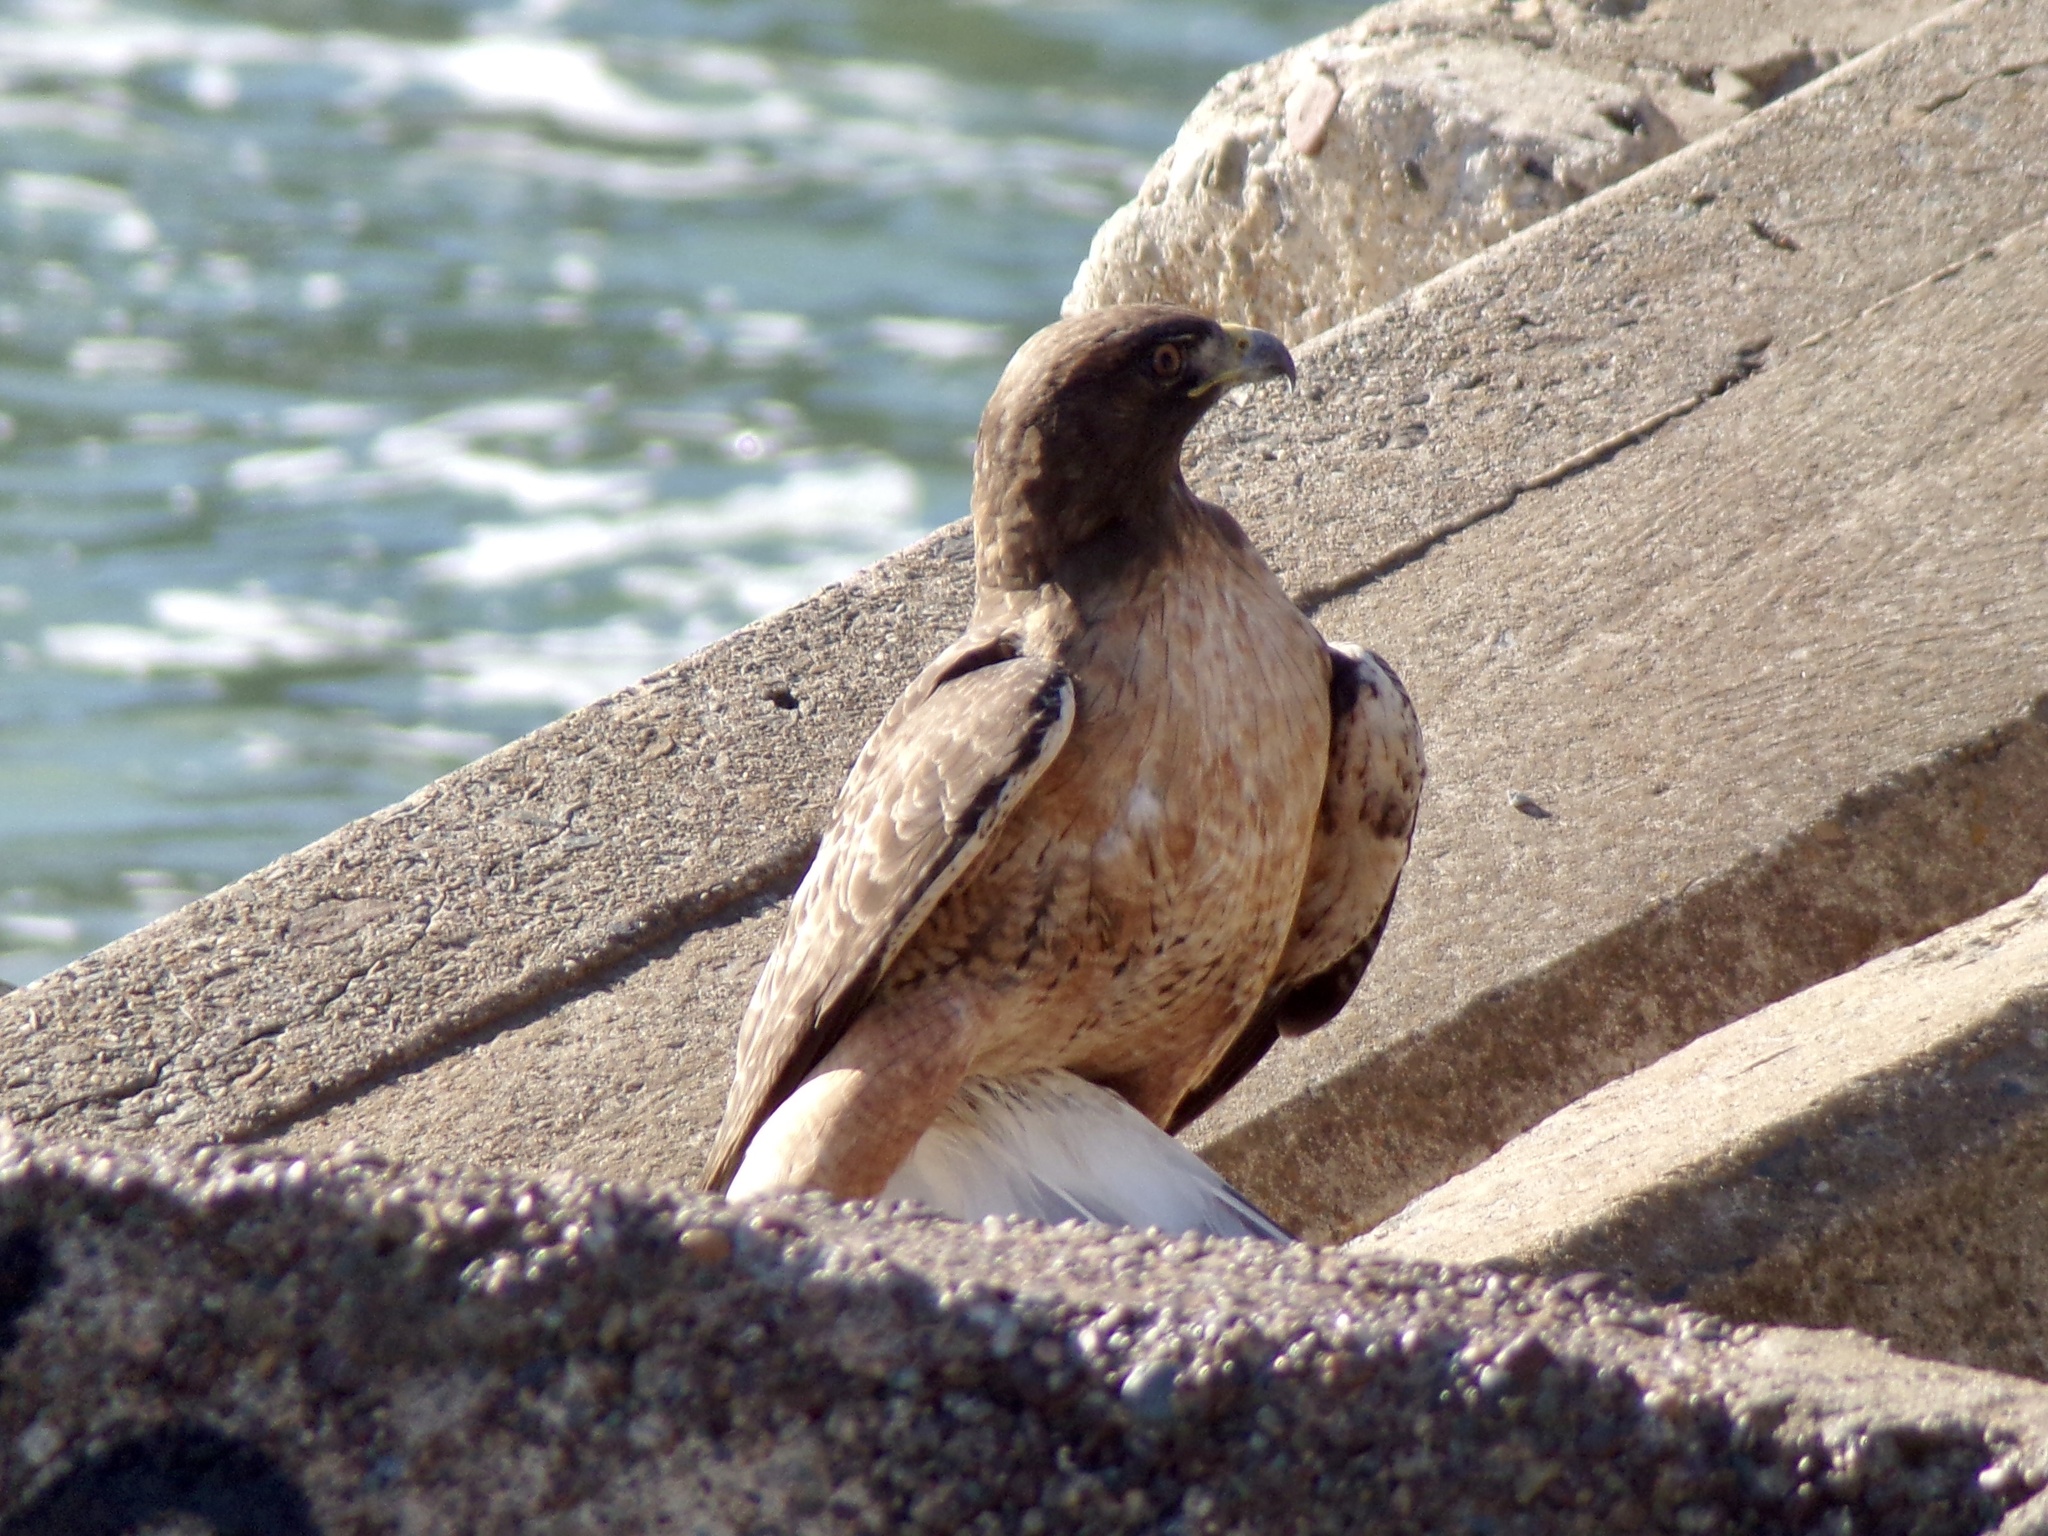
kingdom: Animalia
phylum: Chordata
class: Aves
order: Accipitriformes
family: Accipitridae
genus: Buteo
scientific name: Buteo jamaicensis
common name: Red-tailed hawk
